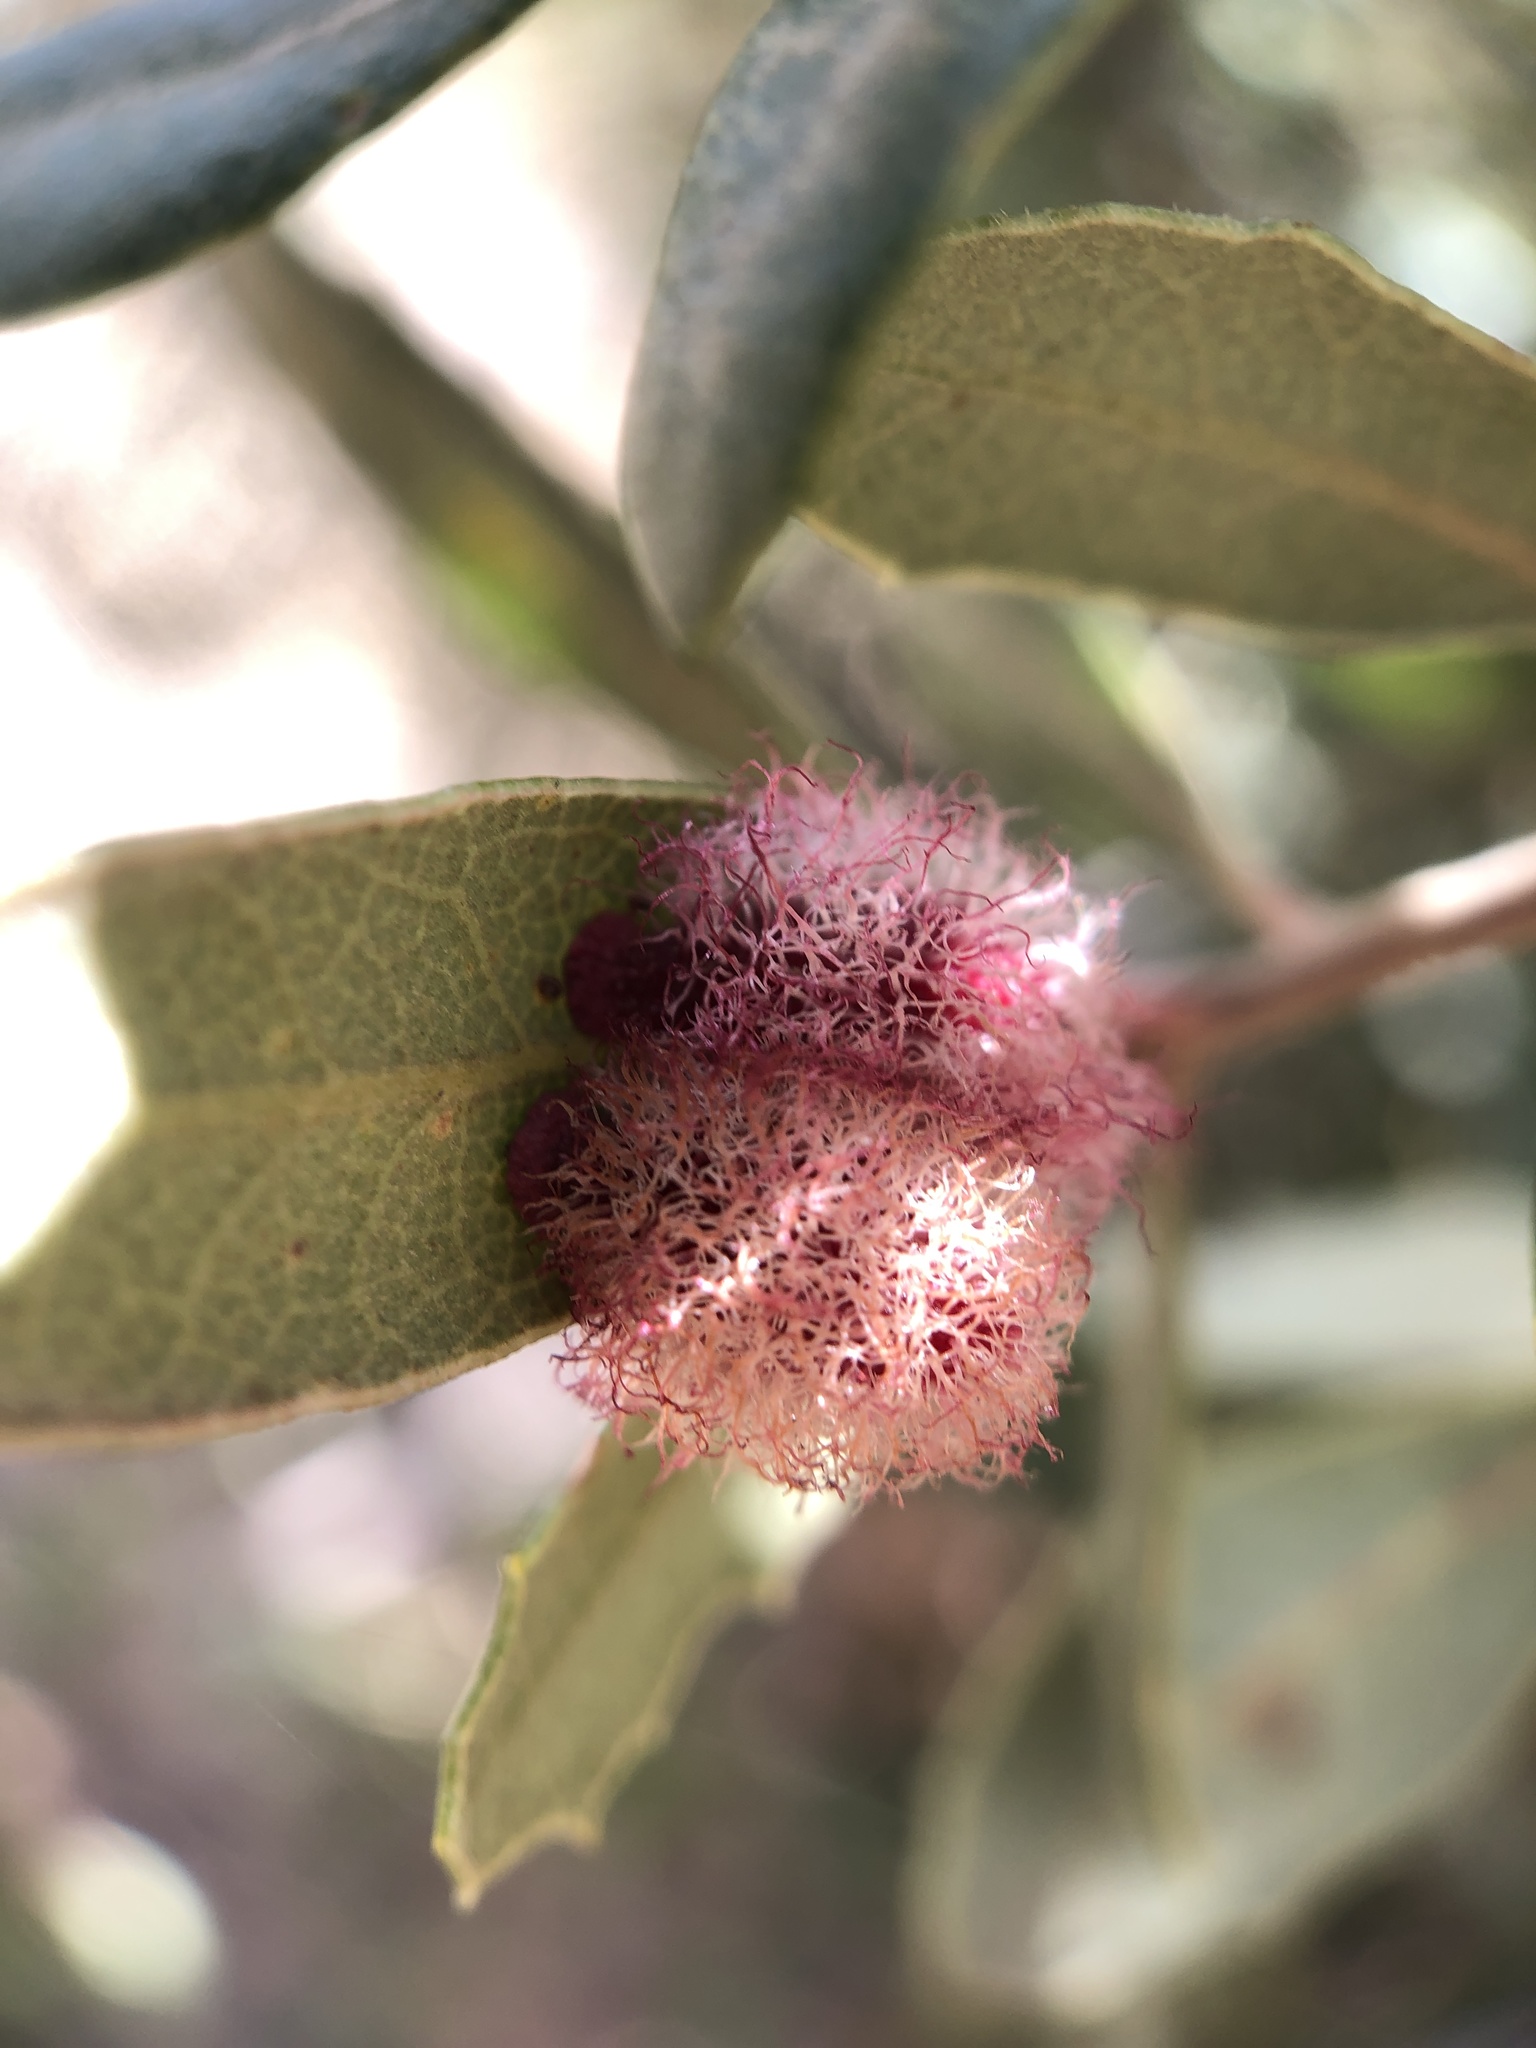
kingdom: Animalia
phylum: Arthropoda
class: Insecta
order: Hymenoptera
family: Cynipidae
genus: Andricus
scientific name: Andricus
